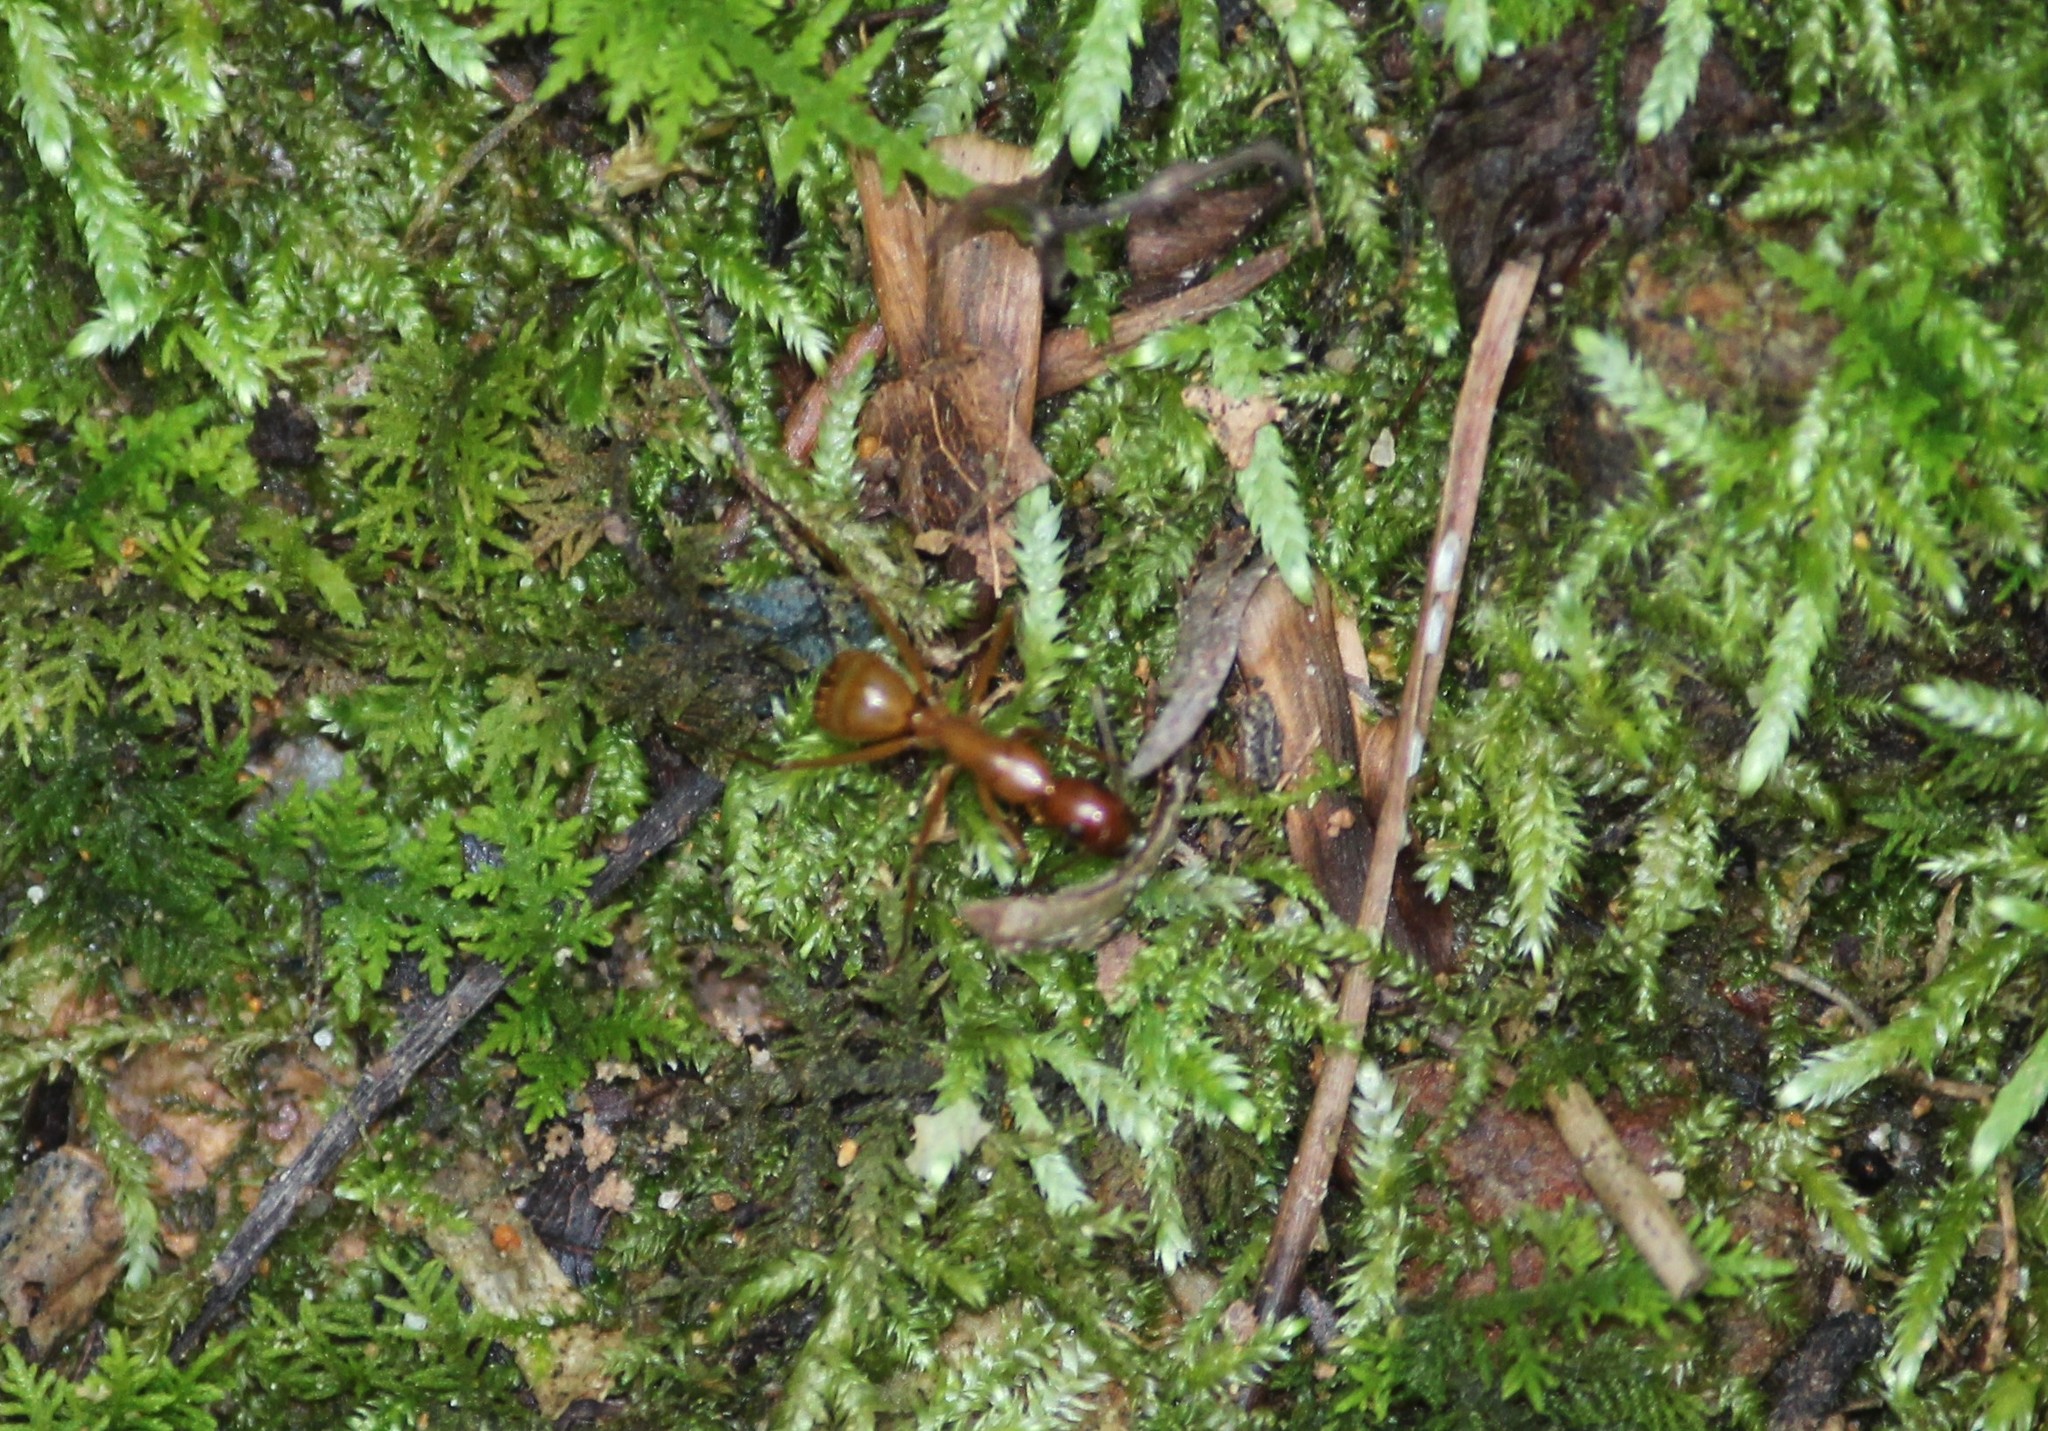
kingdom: Animalia
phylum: Arthropoda
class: Insecta
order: Hymenoptera
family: Formicidae
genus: Camponotus
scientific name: Camponotus castaneus
